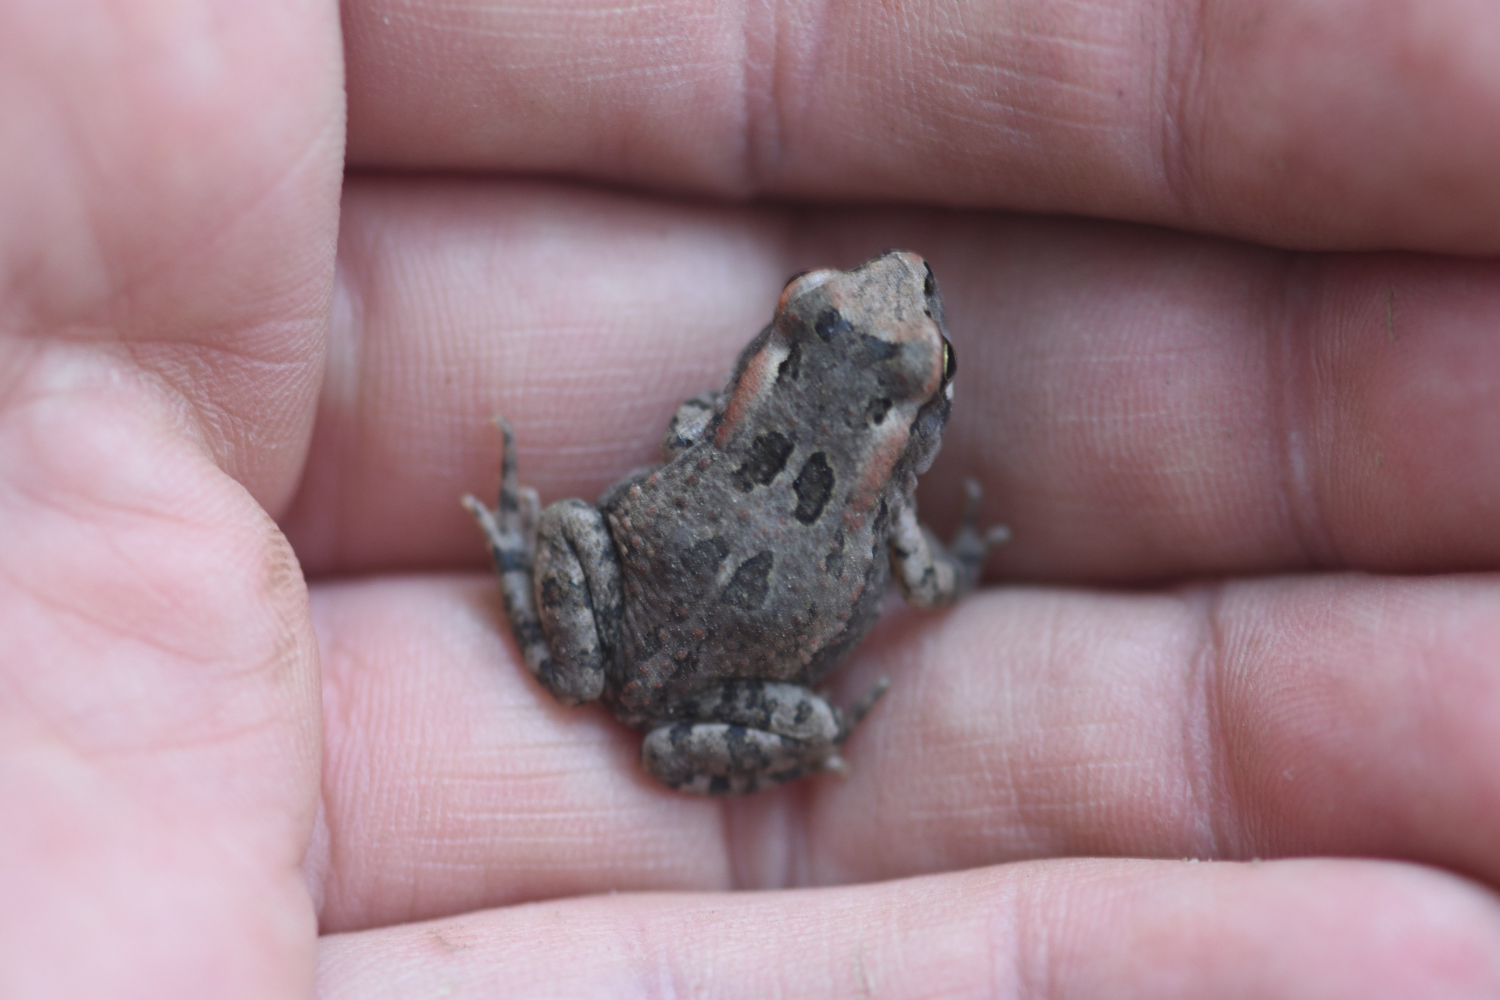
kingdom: Animalia
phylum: Chordata
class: Amphibia
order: Anura
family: Bufonidae
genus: Sclerophrys
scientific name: Sclerophrys capensis
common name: Ranger’s toad
